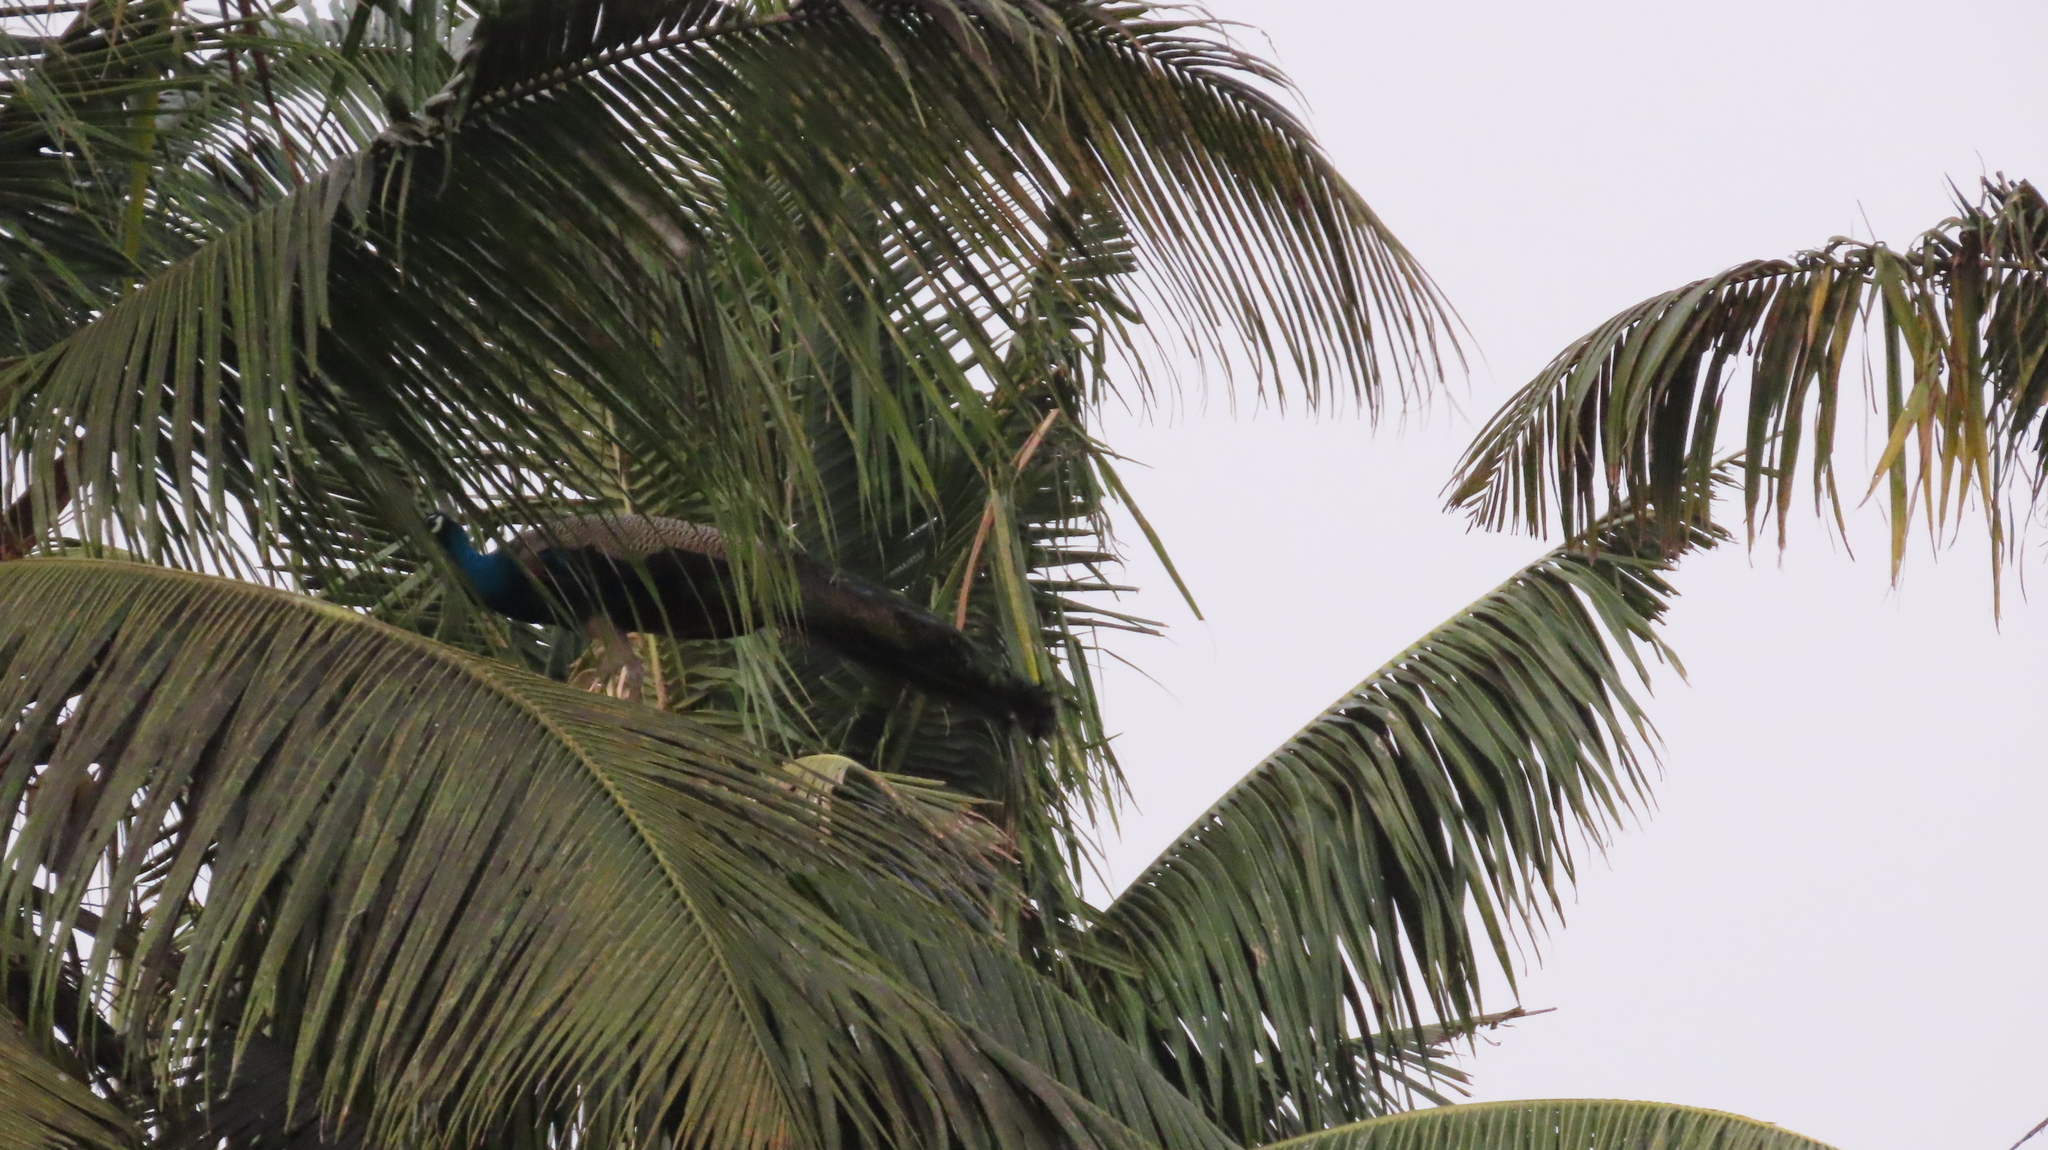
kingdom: Animalia
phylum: Chordata
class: Aves
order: Galliformes
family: Phasianidae
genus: Pavo
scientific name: Pavo cristatus
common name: Indian peafowl
